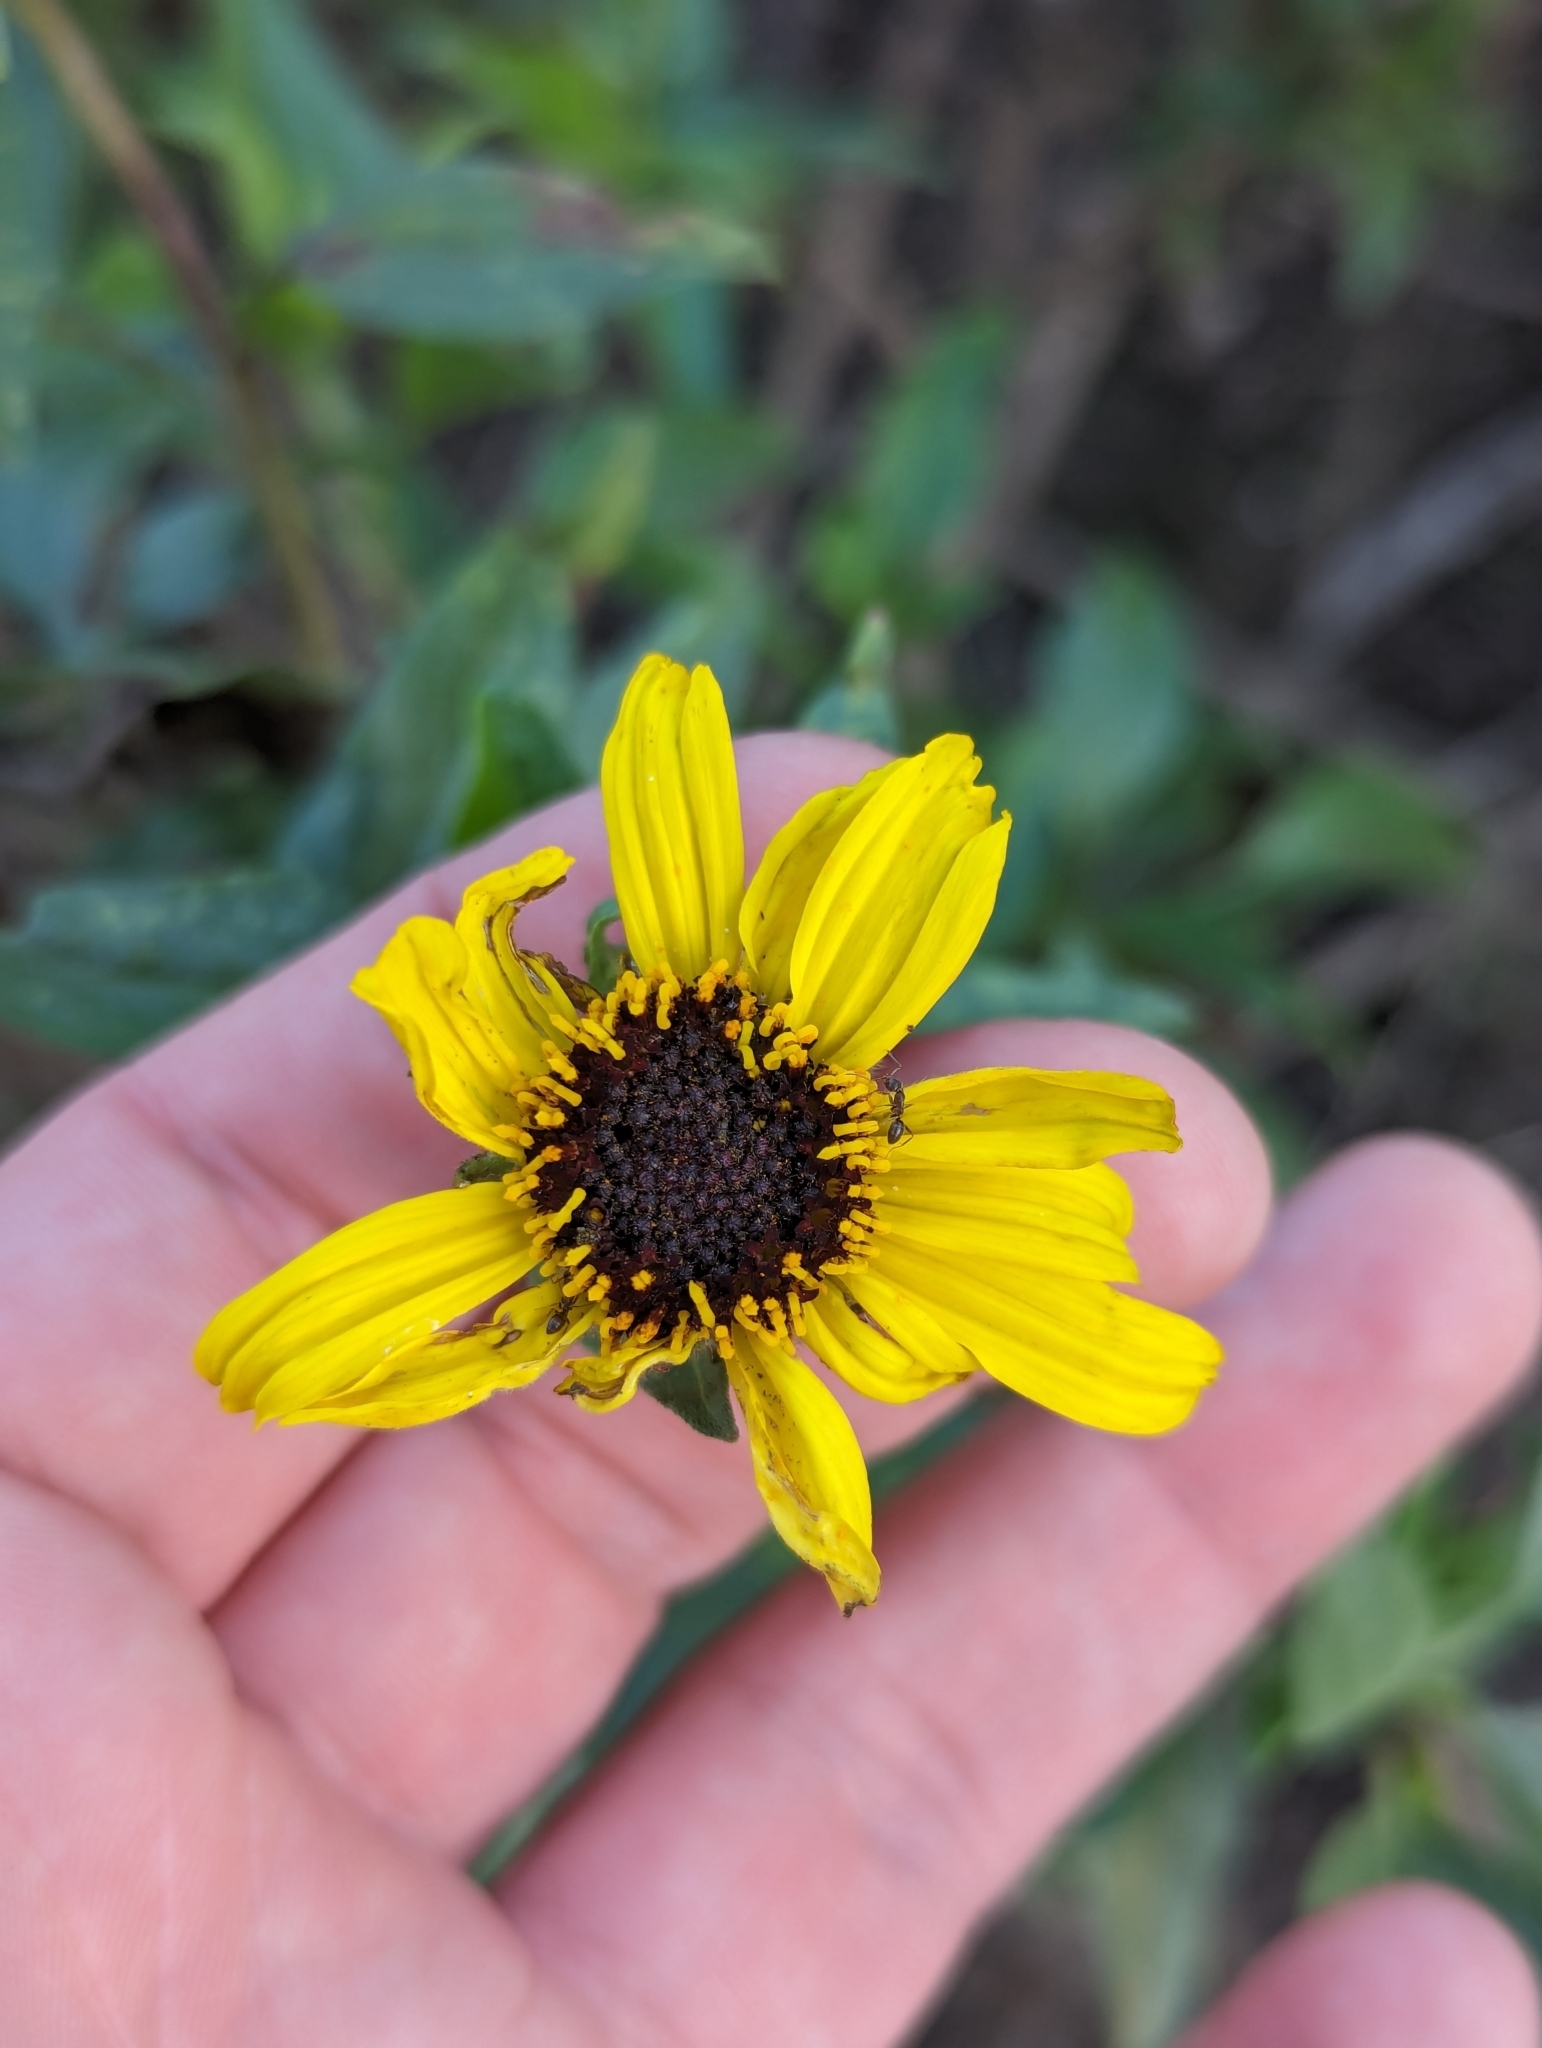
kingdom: Plantae
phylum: Tracheophyta
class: Magnoliopsida
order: Asterales
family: Asteraceae
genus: Encelia
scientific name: Encelia californica
